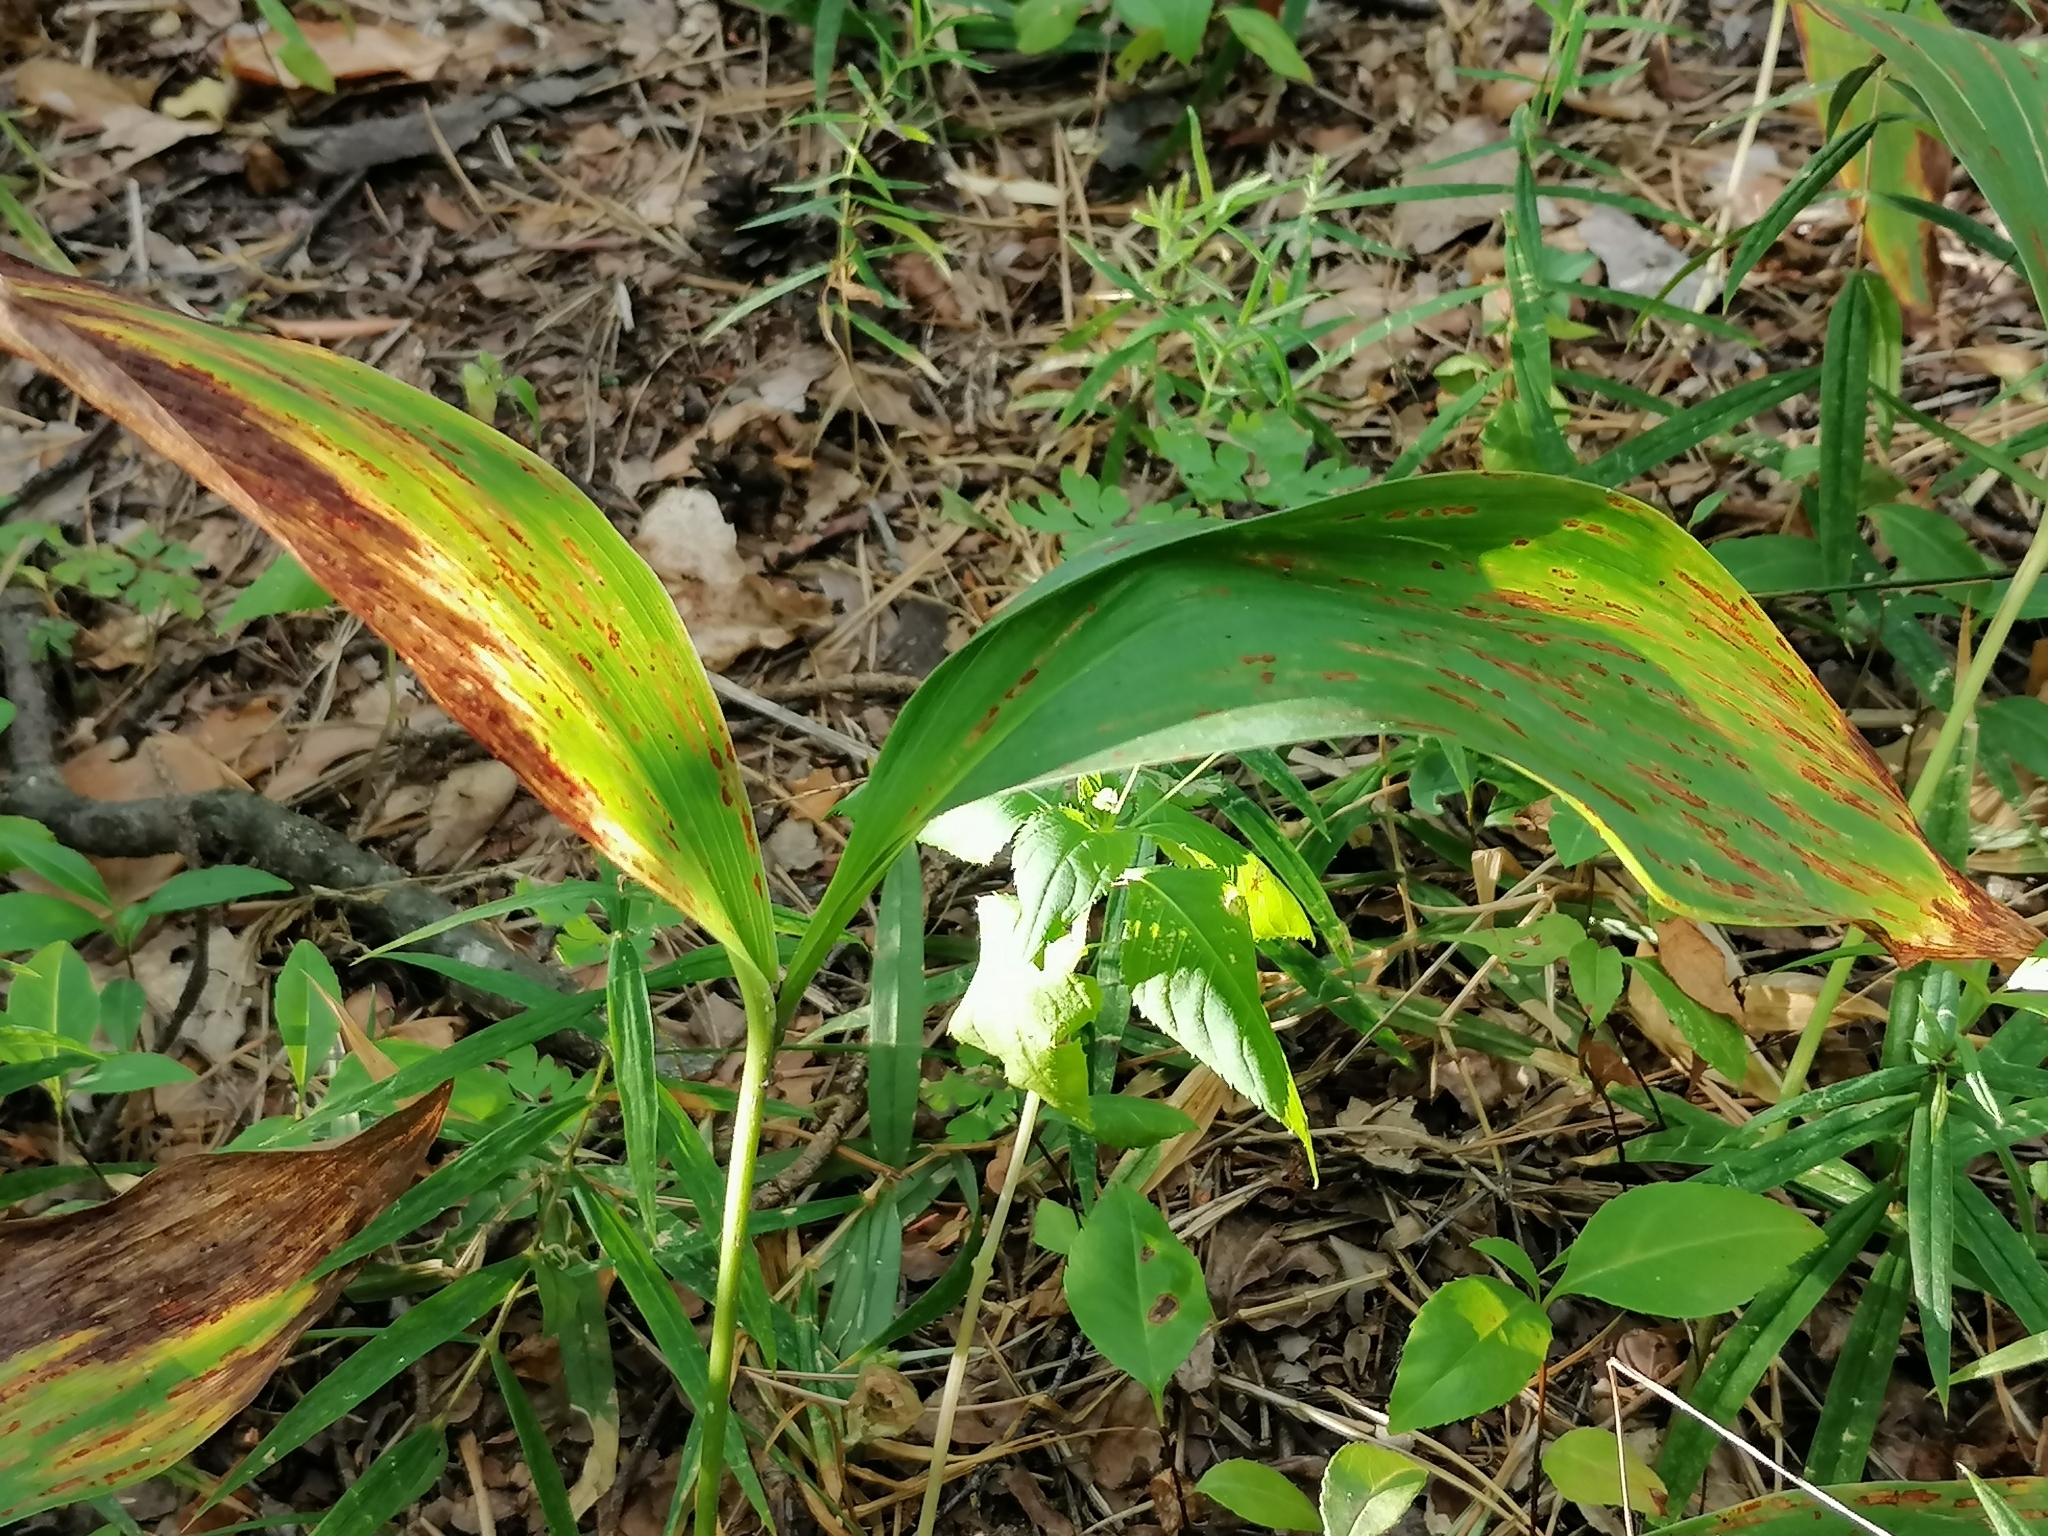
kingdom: Plantae
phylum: Tracheophyta
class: Liliopsida
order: Asparagales
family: Asparagaceae
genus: Convallaria
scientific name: Convallaria majalis
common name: Lily-of-the-valley
